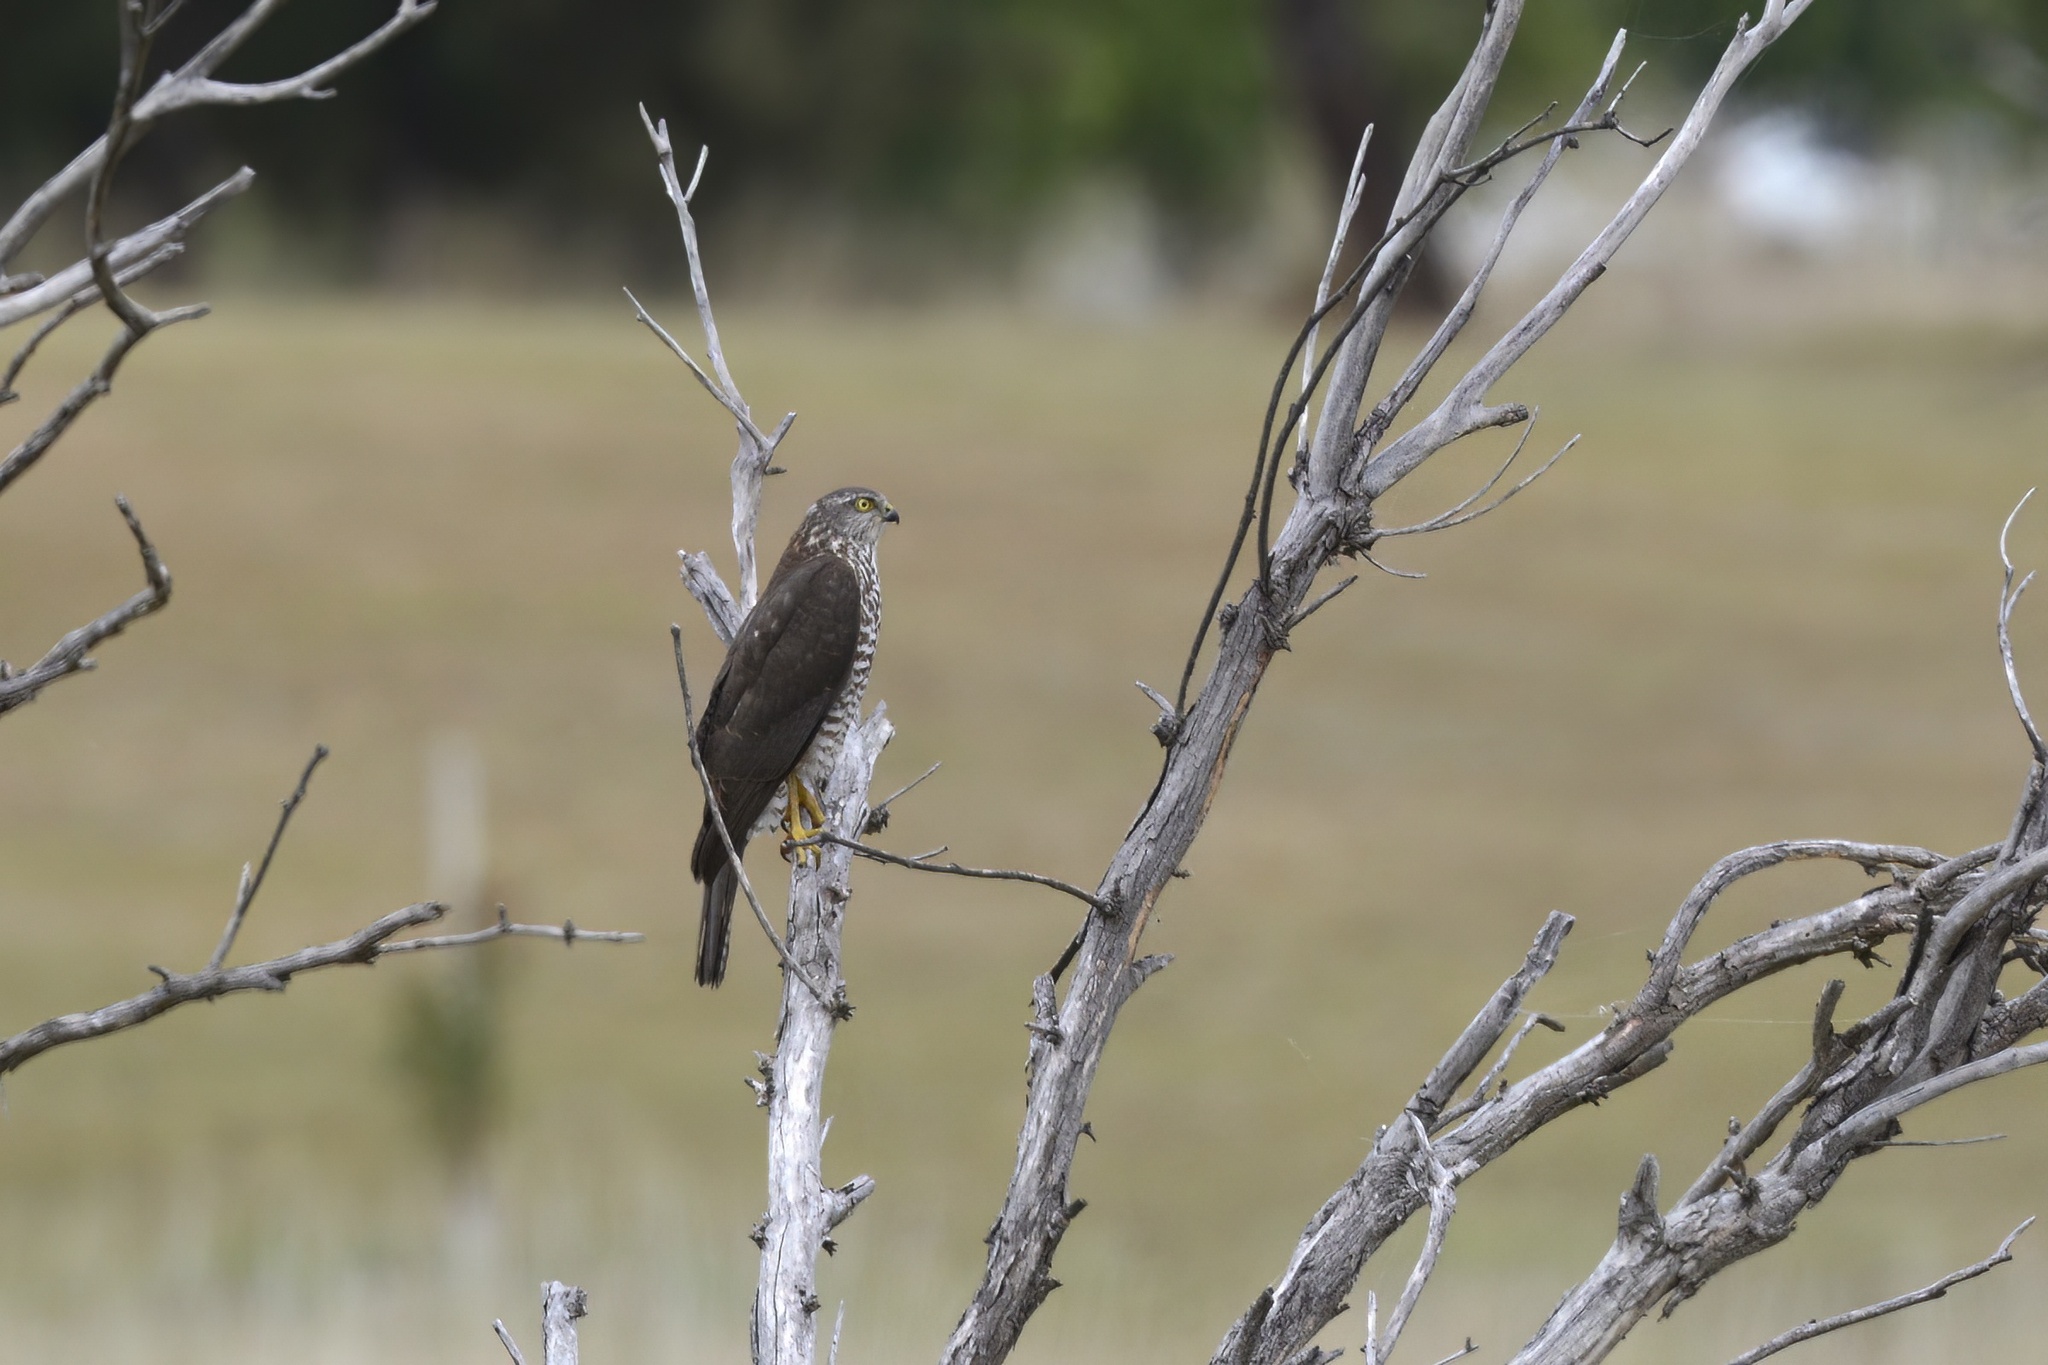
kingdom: Animalia
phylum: Chordata
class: Aves
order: Accipitriformes
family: Accipitridae
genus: Accipiter
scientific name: Accipiter fasciatus
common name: Brown goshawk
